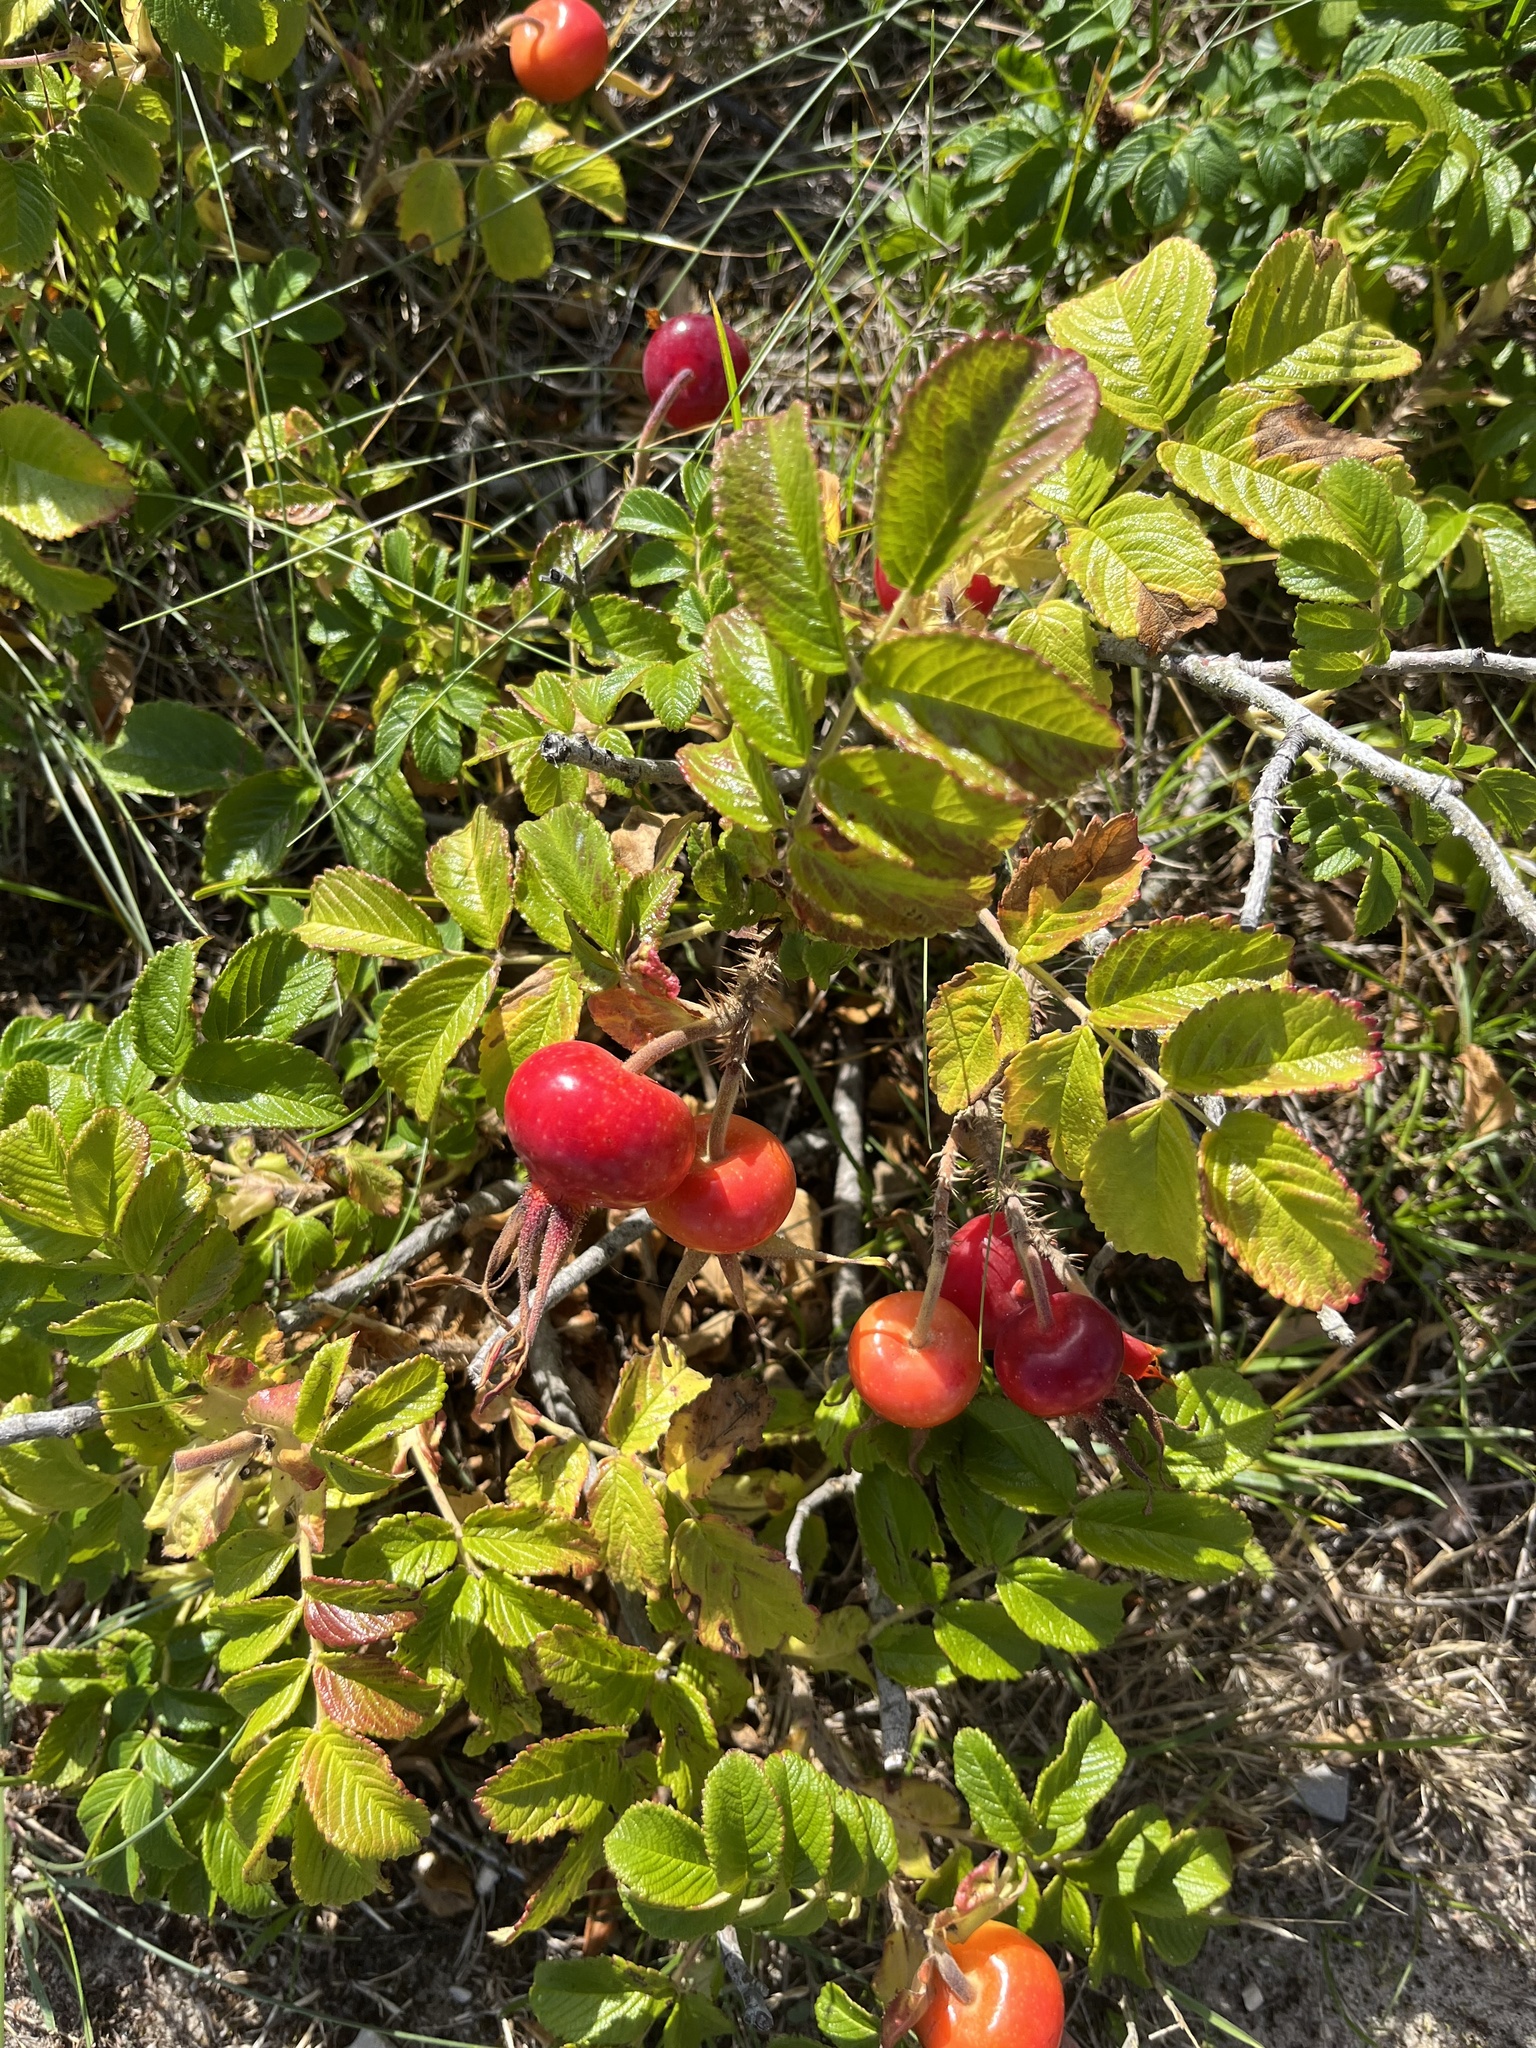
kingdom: Plantae
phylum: Tracheophyta
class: Magnoliopsida
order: Rosales
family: Rosaceae
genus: Rosa
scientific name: Rosa rugosa
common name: Japanese rose
